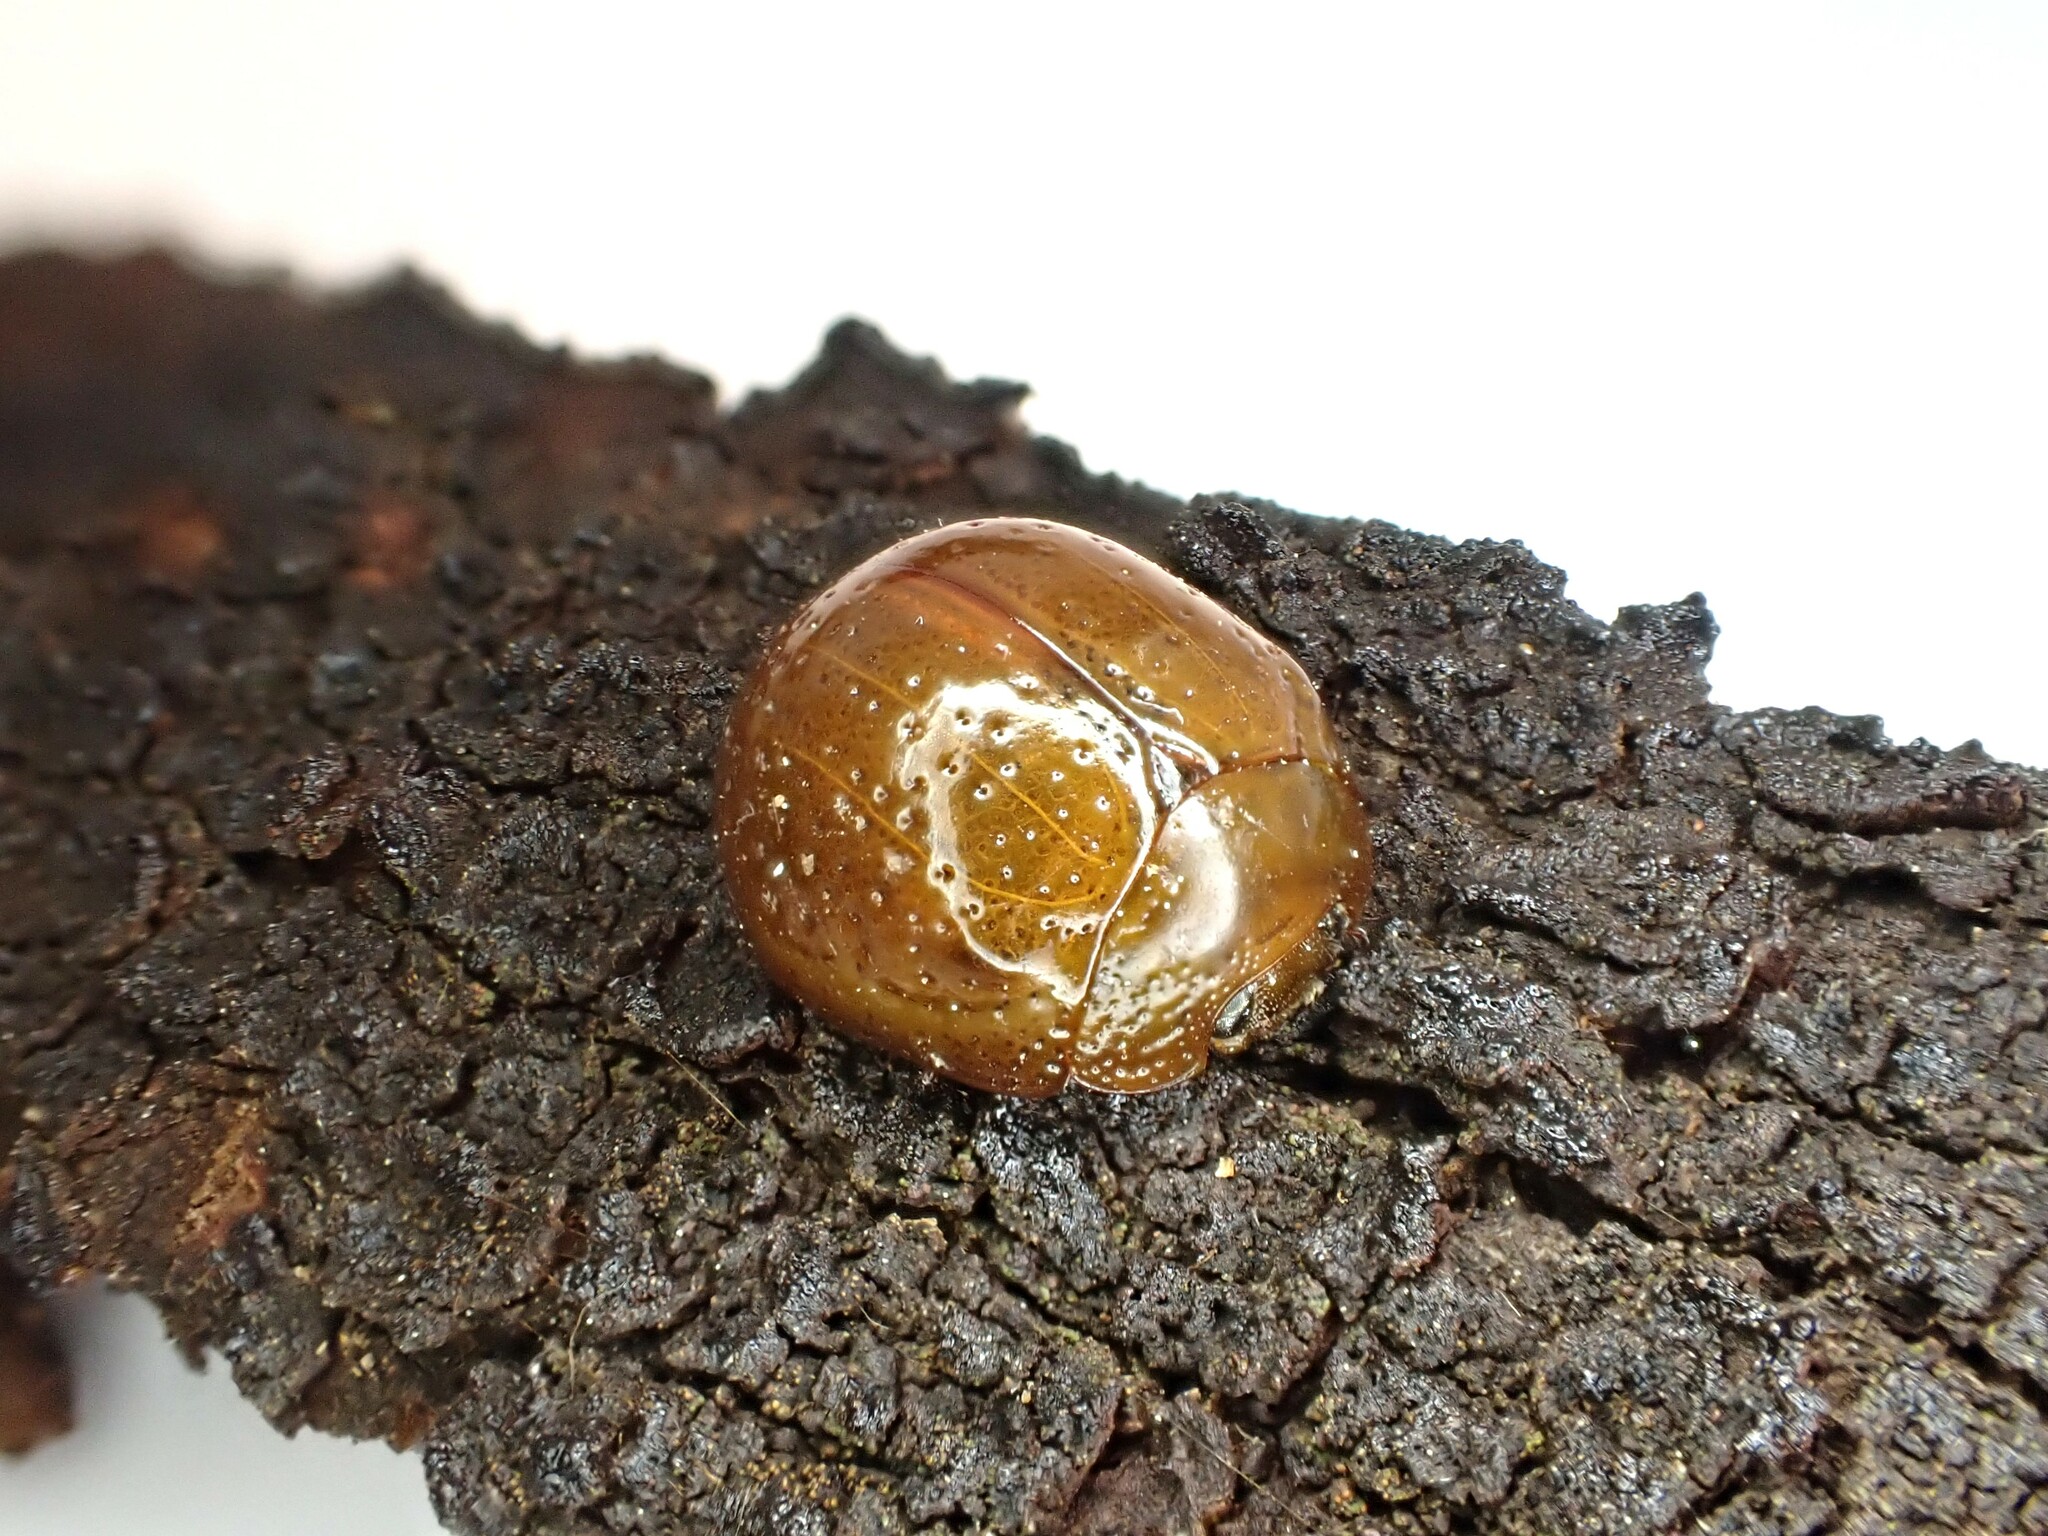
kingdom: Animalia
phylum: Arthropoda
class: Insecta
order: Coleoptera
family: Chrysomelidae
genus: Dicranosterna
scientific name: Dicranosterna
